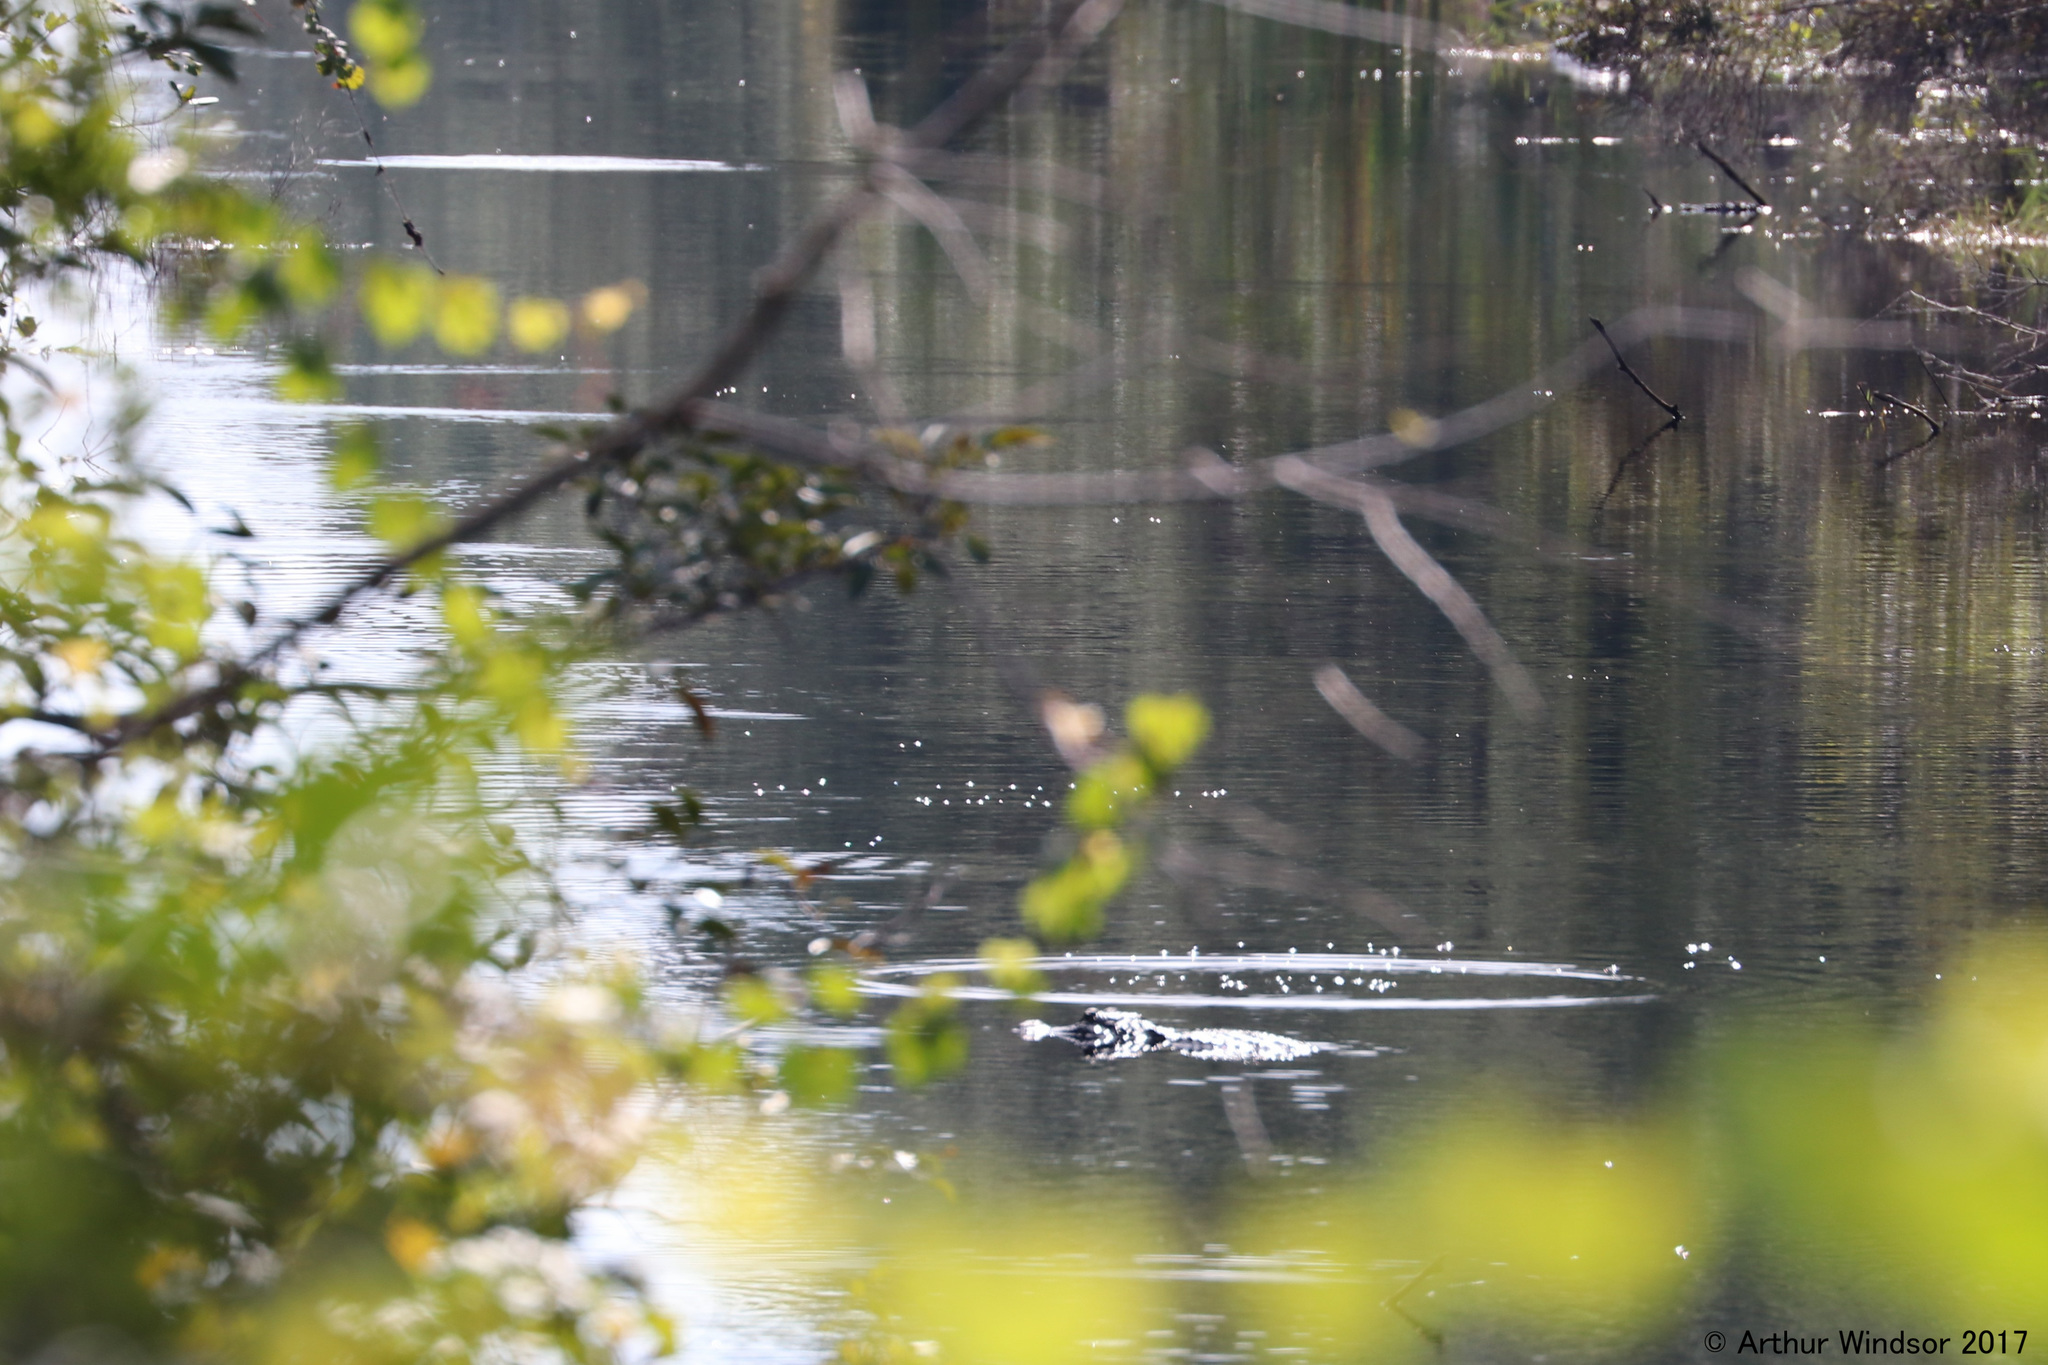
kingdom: Animalia
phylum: Chordata
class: Crocodylia
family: Alligatoridae
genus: Alligator
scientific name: Alligator mississippiensis
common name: American alligator
